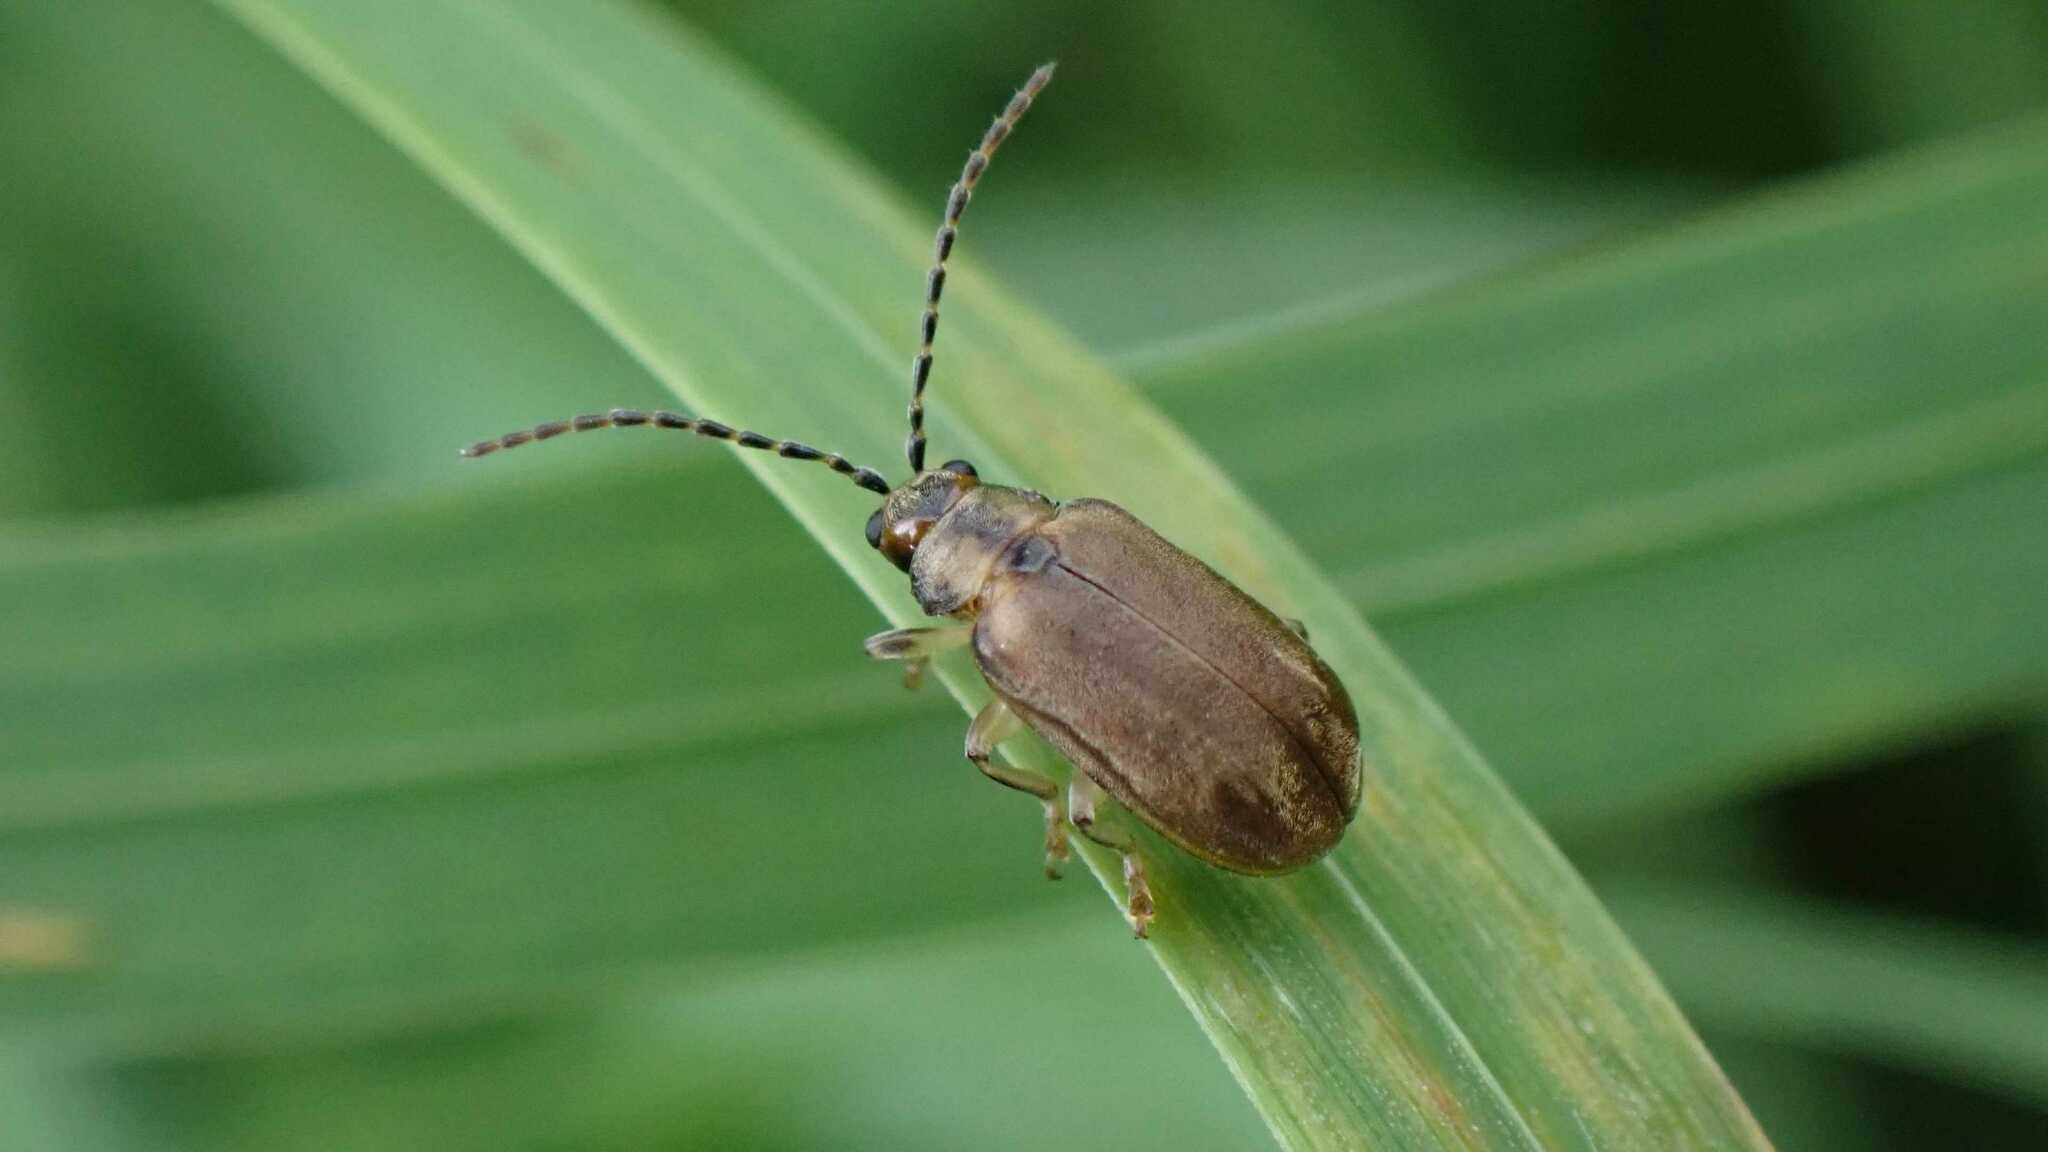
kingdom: Animalia
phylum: Arthropoda
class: Insecta
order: Coleoptera
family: Chrysomelidae
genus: Pyrrhalta
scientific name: Pyrrhalta viburni
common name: Guelder-rose leaf beetle
